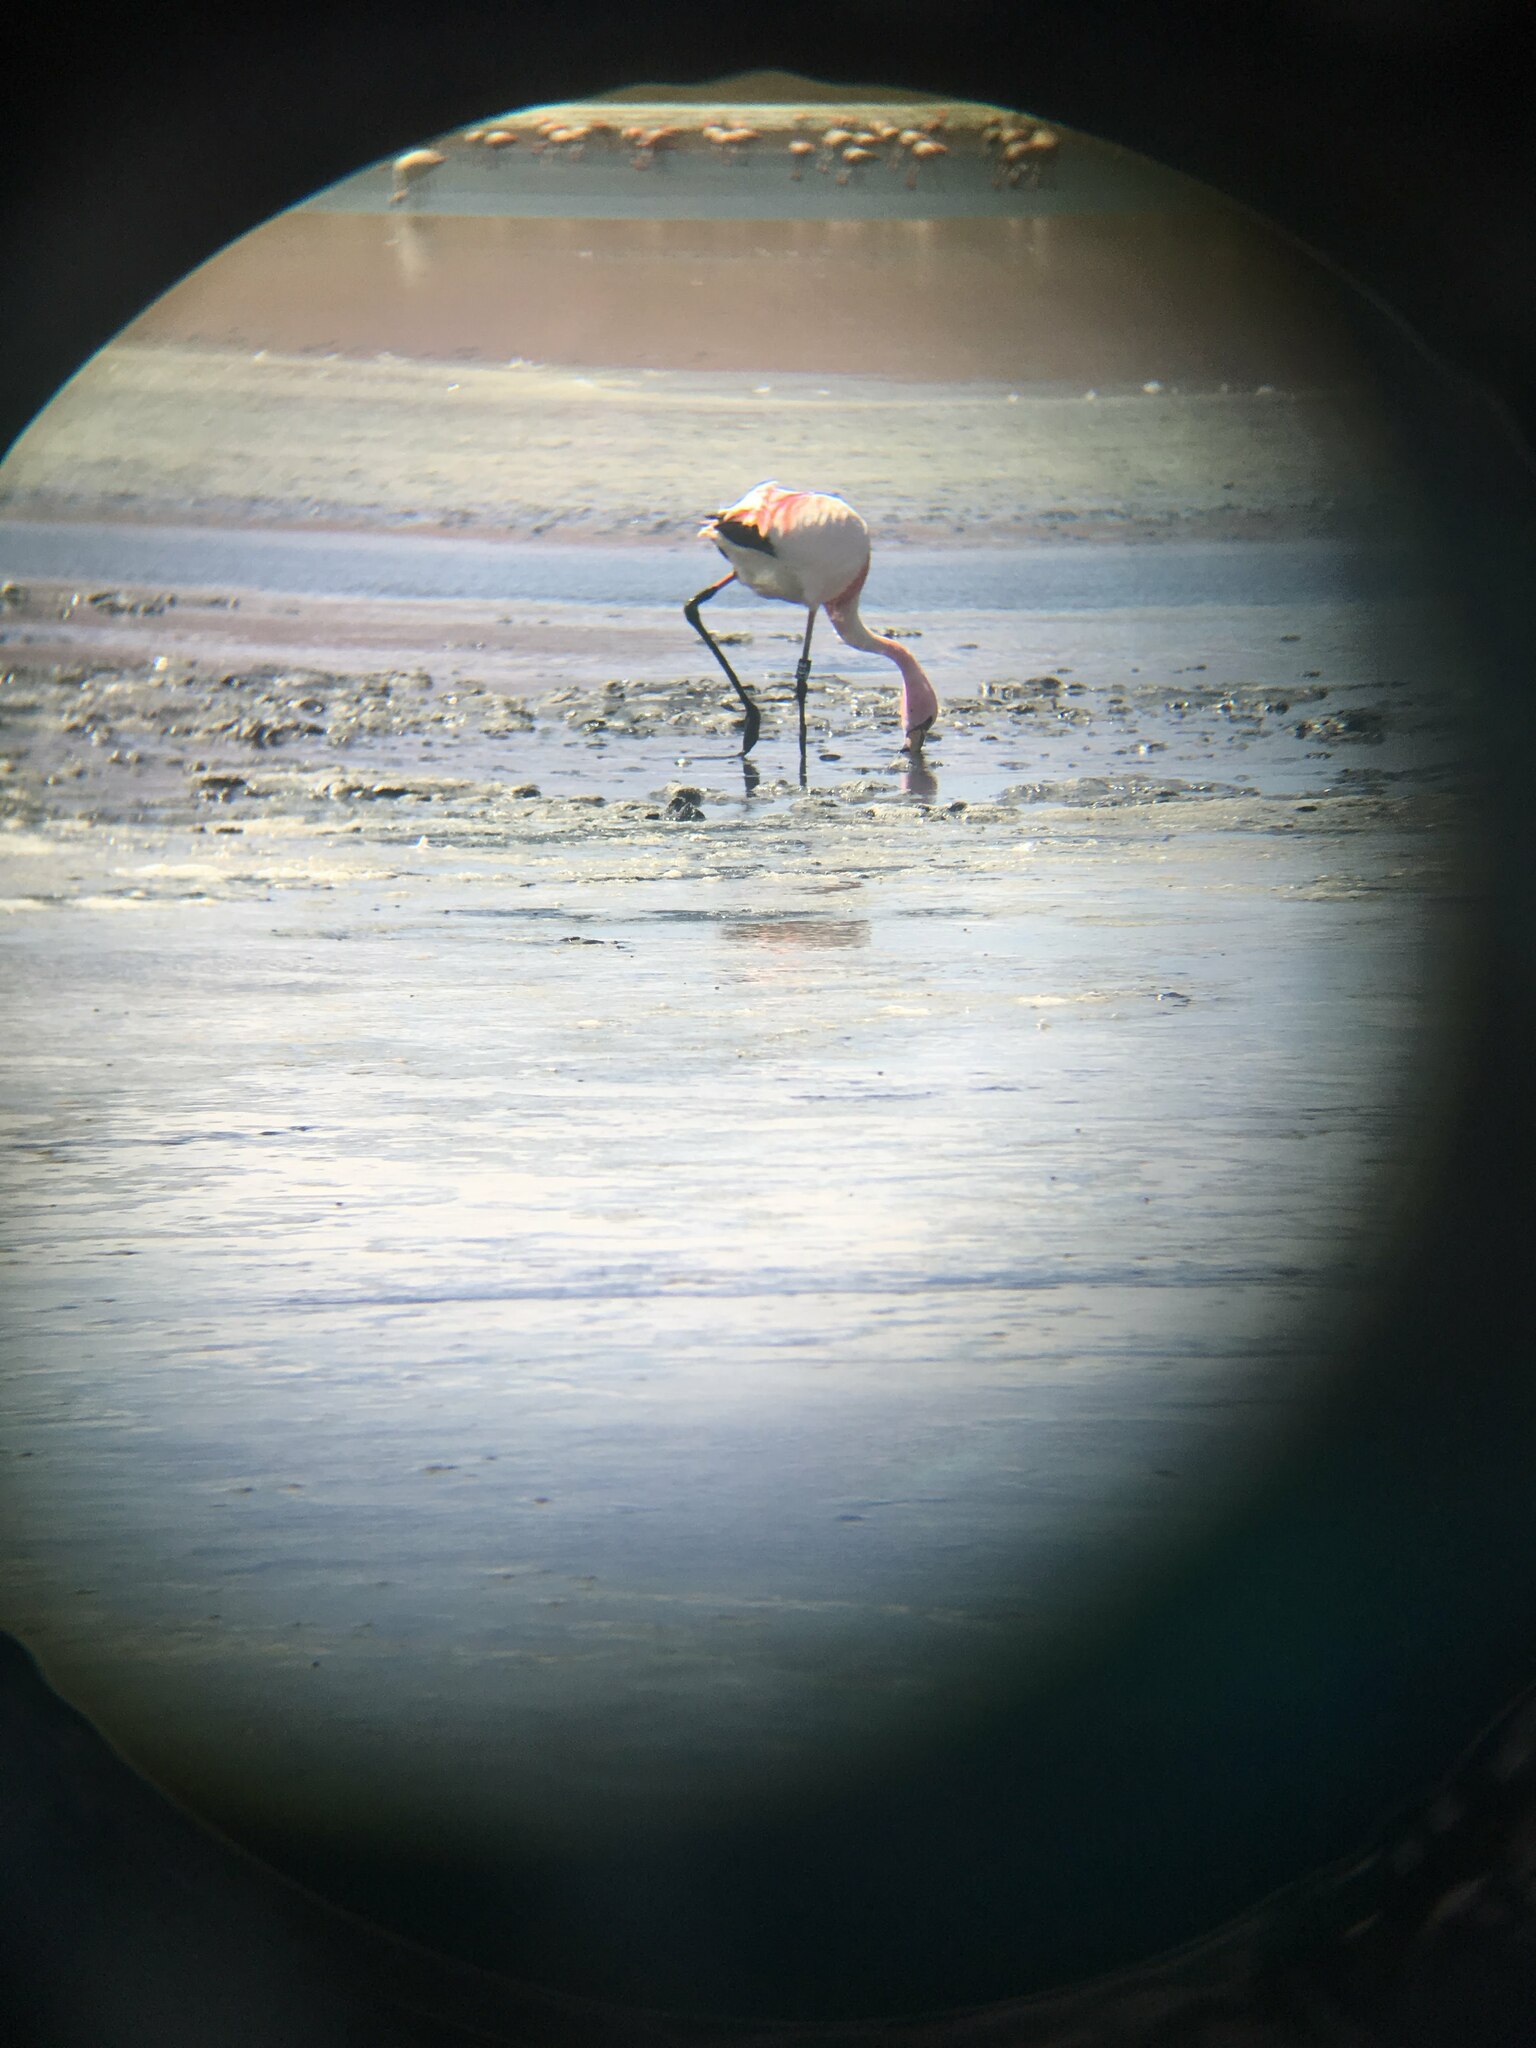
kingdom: Animalia
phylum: Chordata
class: Aves
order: Phoenicopteriformes
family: Phoenicopteridae
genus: Phoenicoparrus
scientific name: Phoenicoparrus jamesi
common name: James's flamingo
